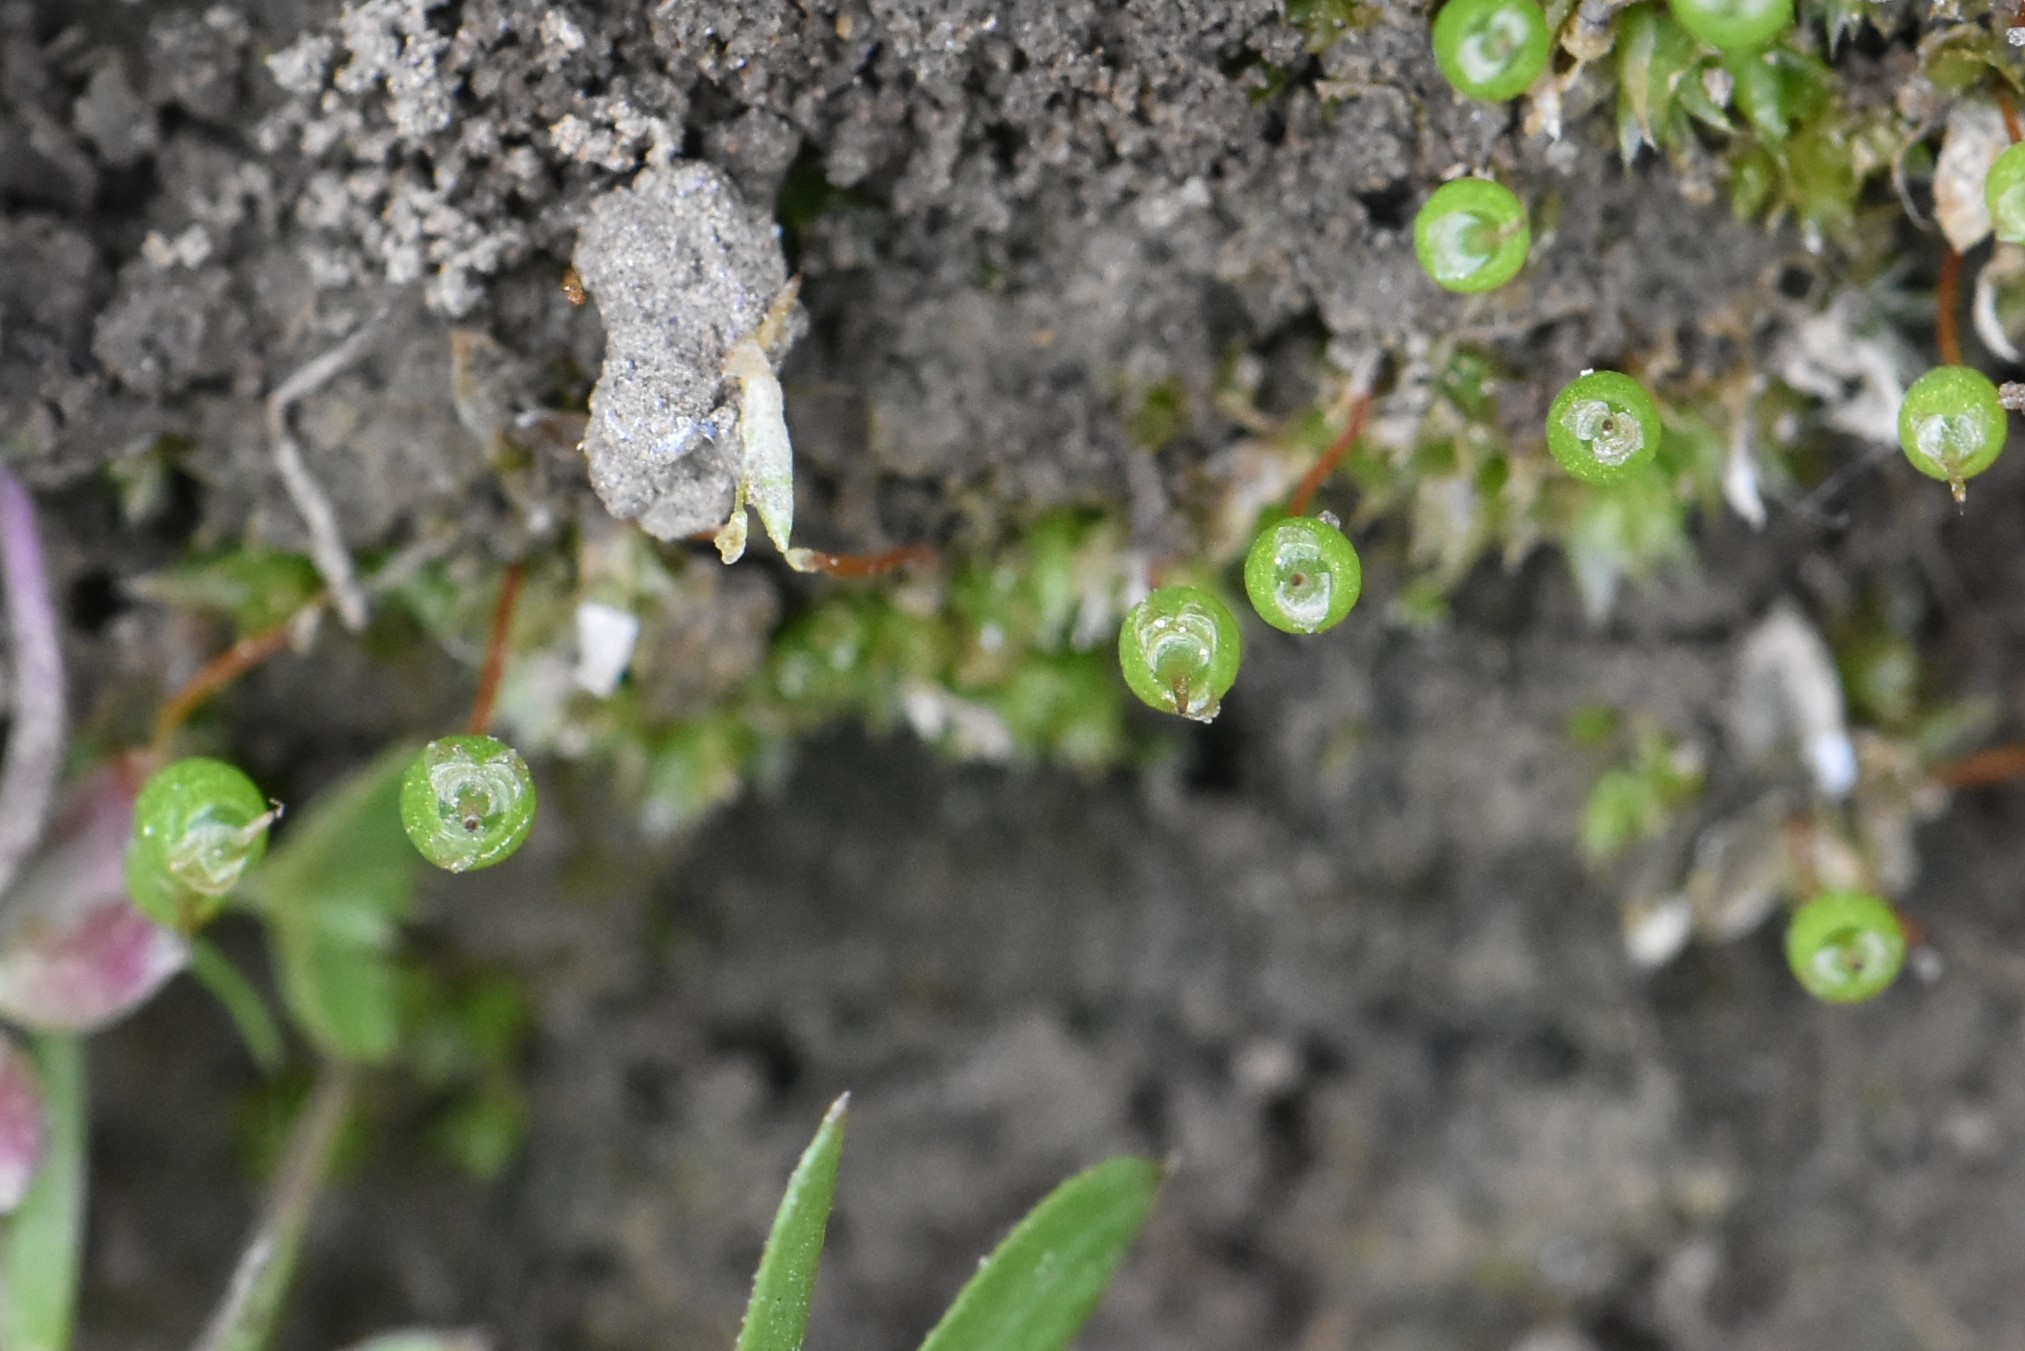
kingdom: Plantae
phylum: Bryophyta
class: Bryopsida
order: Funariales
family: Funariaceae
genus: Physcomitrium
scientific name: Physcomitrium pyriforme
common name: Common bladder-moss
